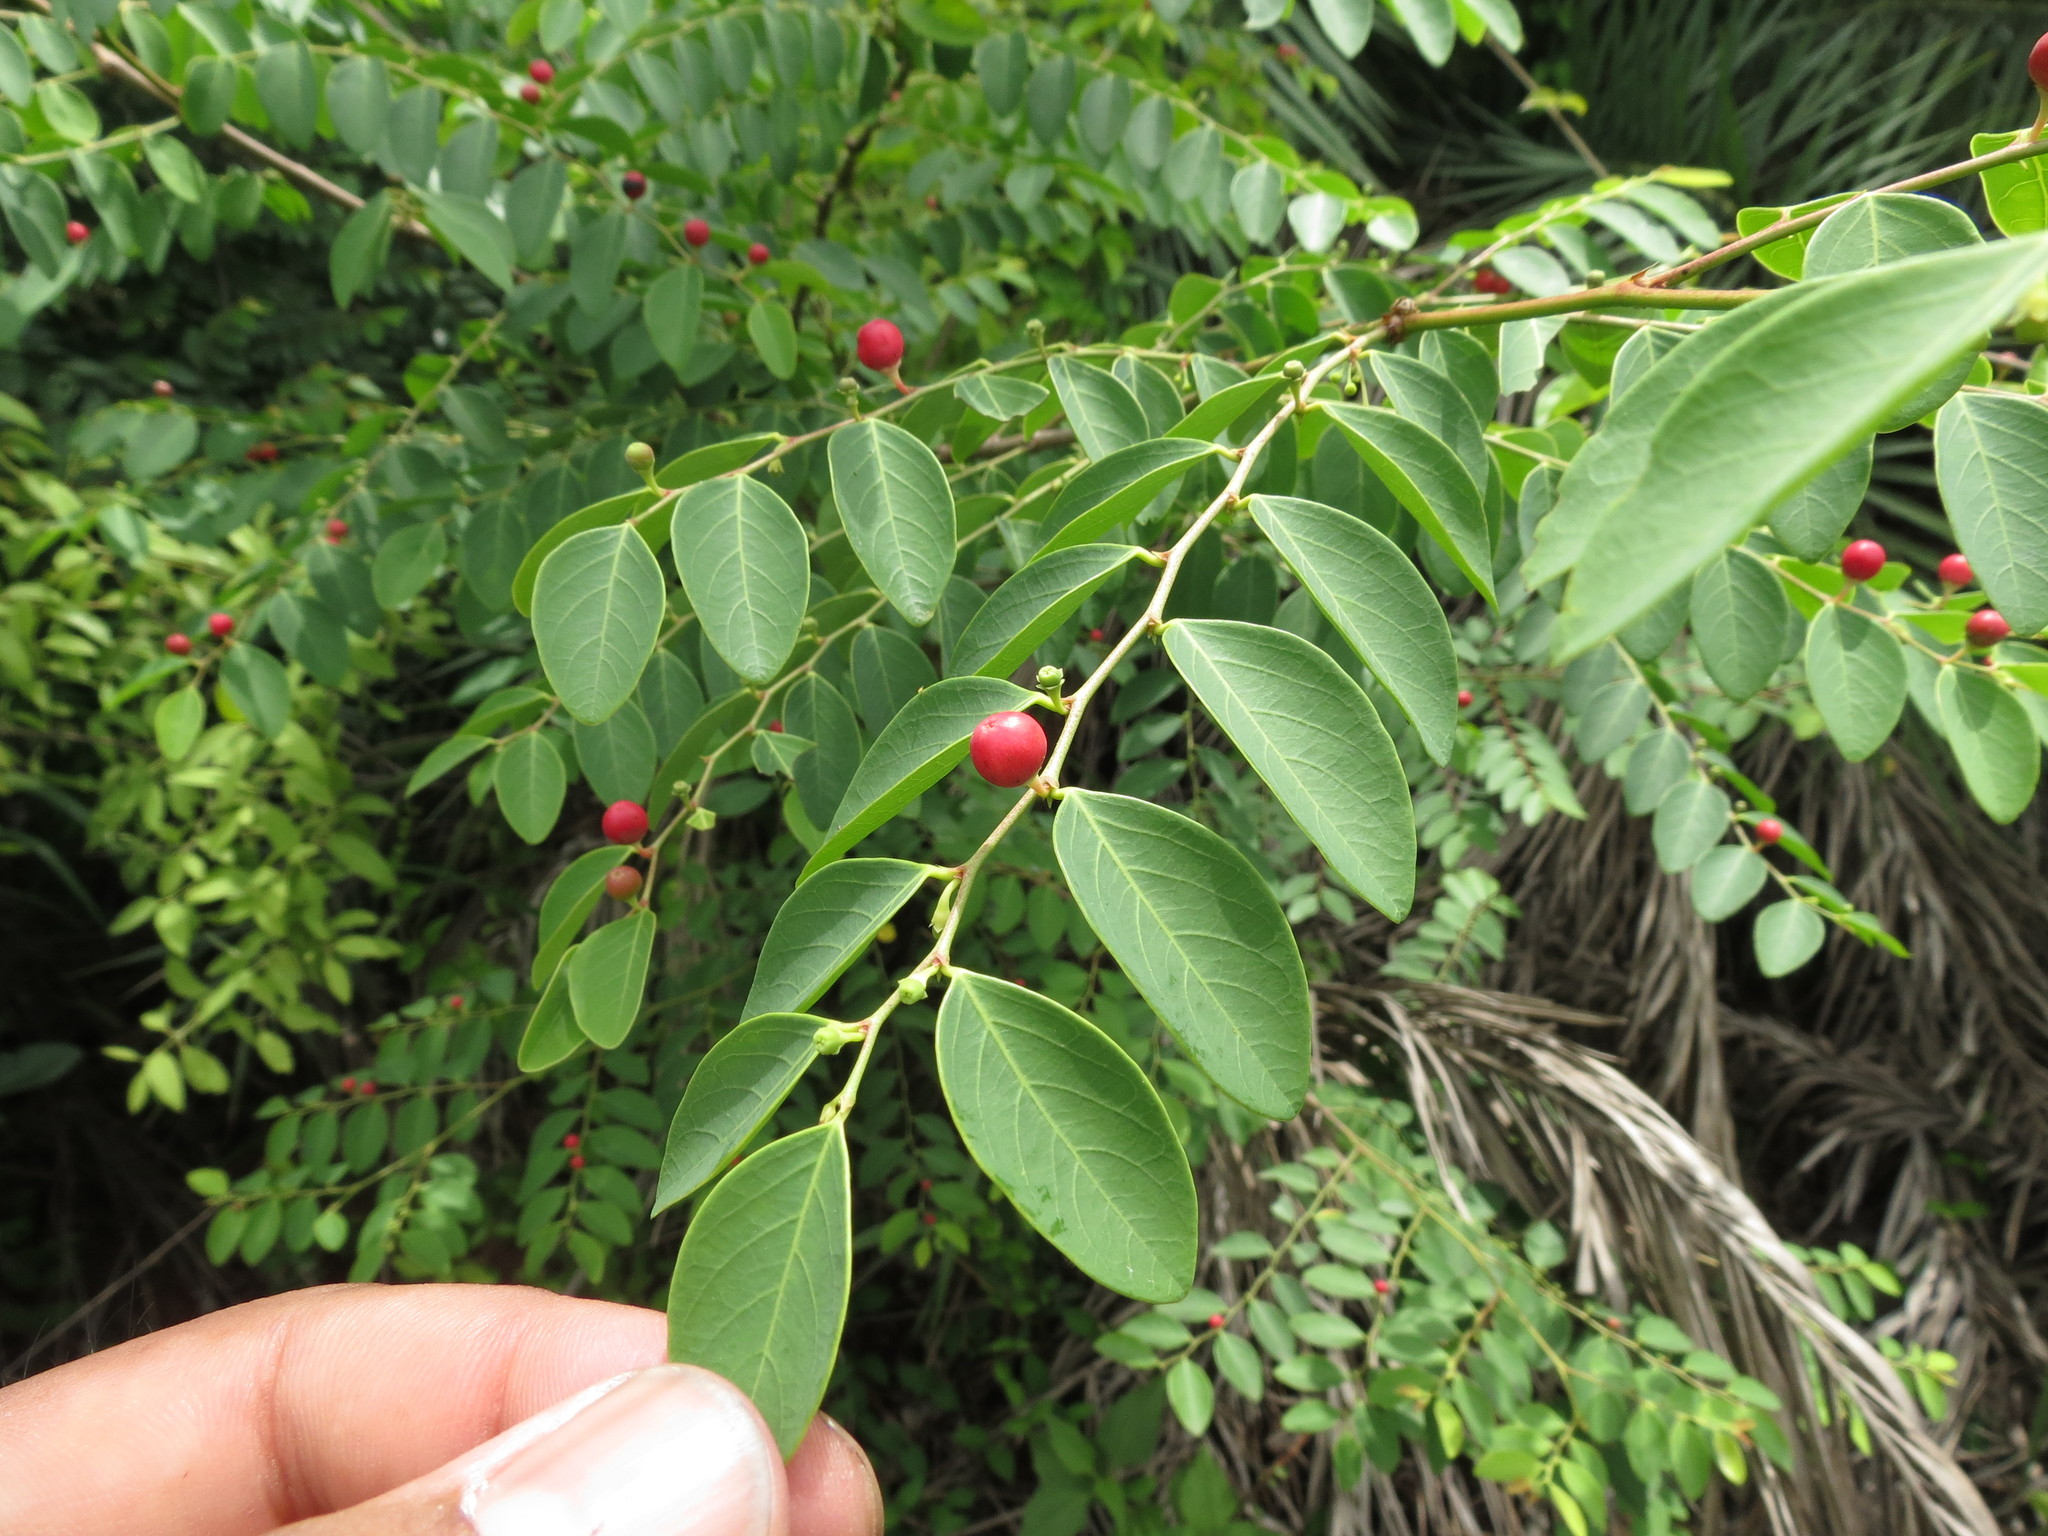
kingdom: Plantae
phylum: Tracheophyta
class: Magnoliopsida
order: Malpighiales
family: Phyllanthaceae
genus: Breynia
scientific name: Breynia vitis-idaea
